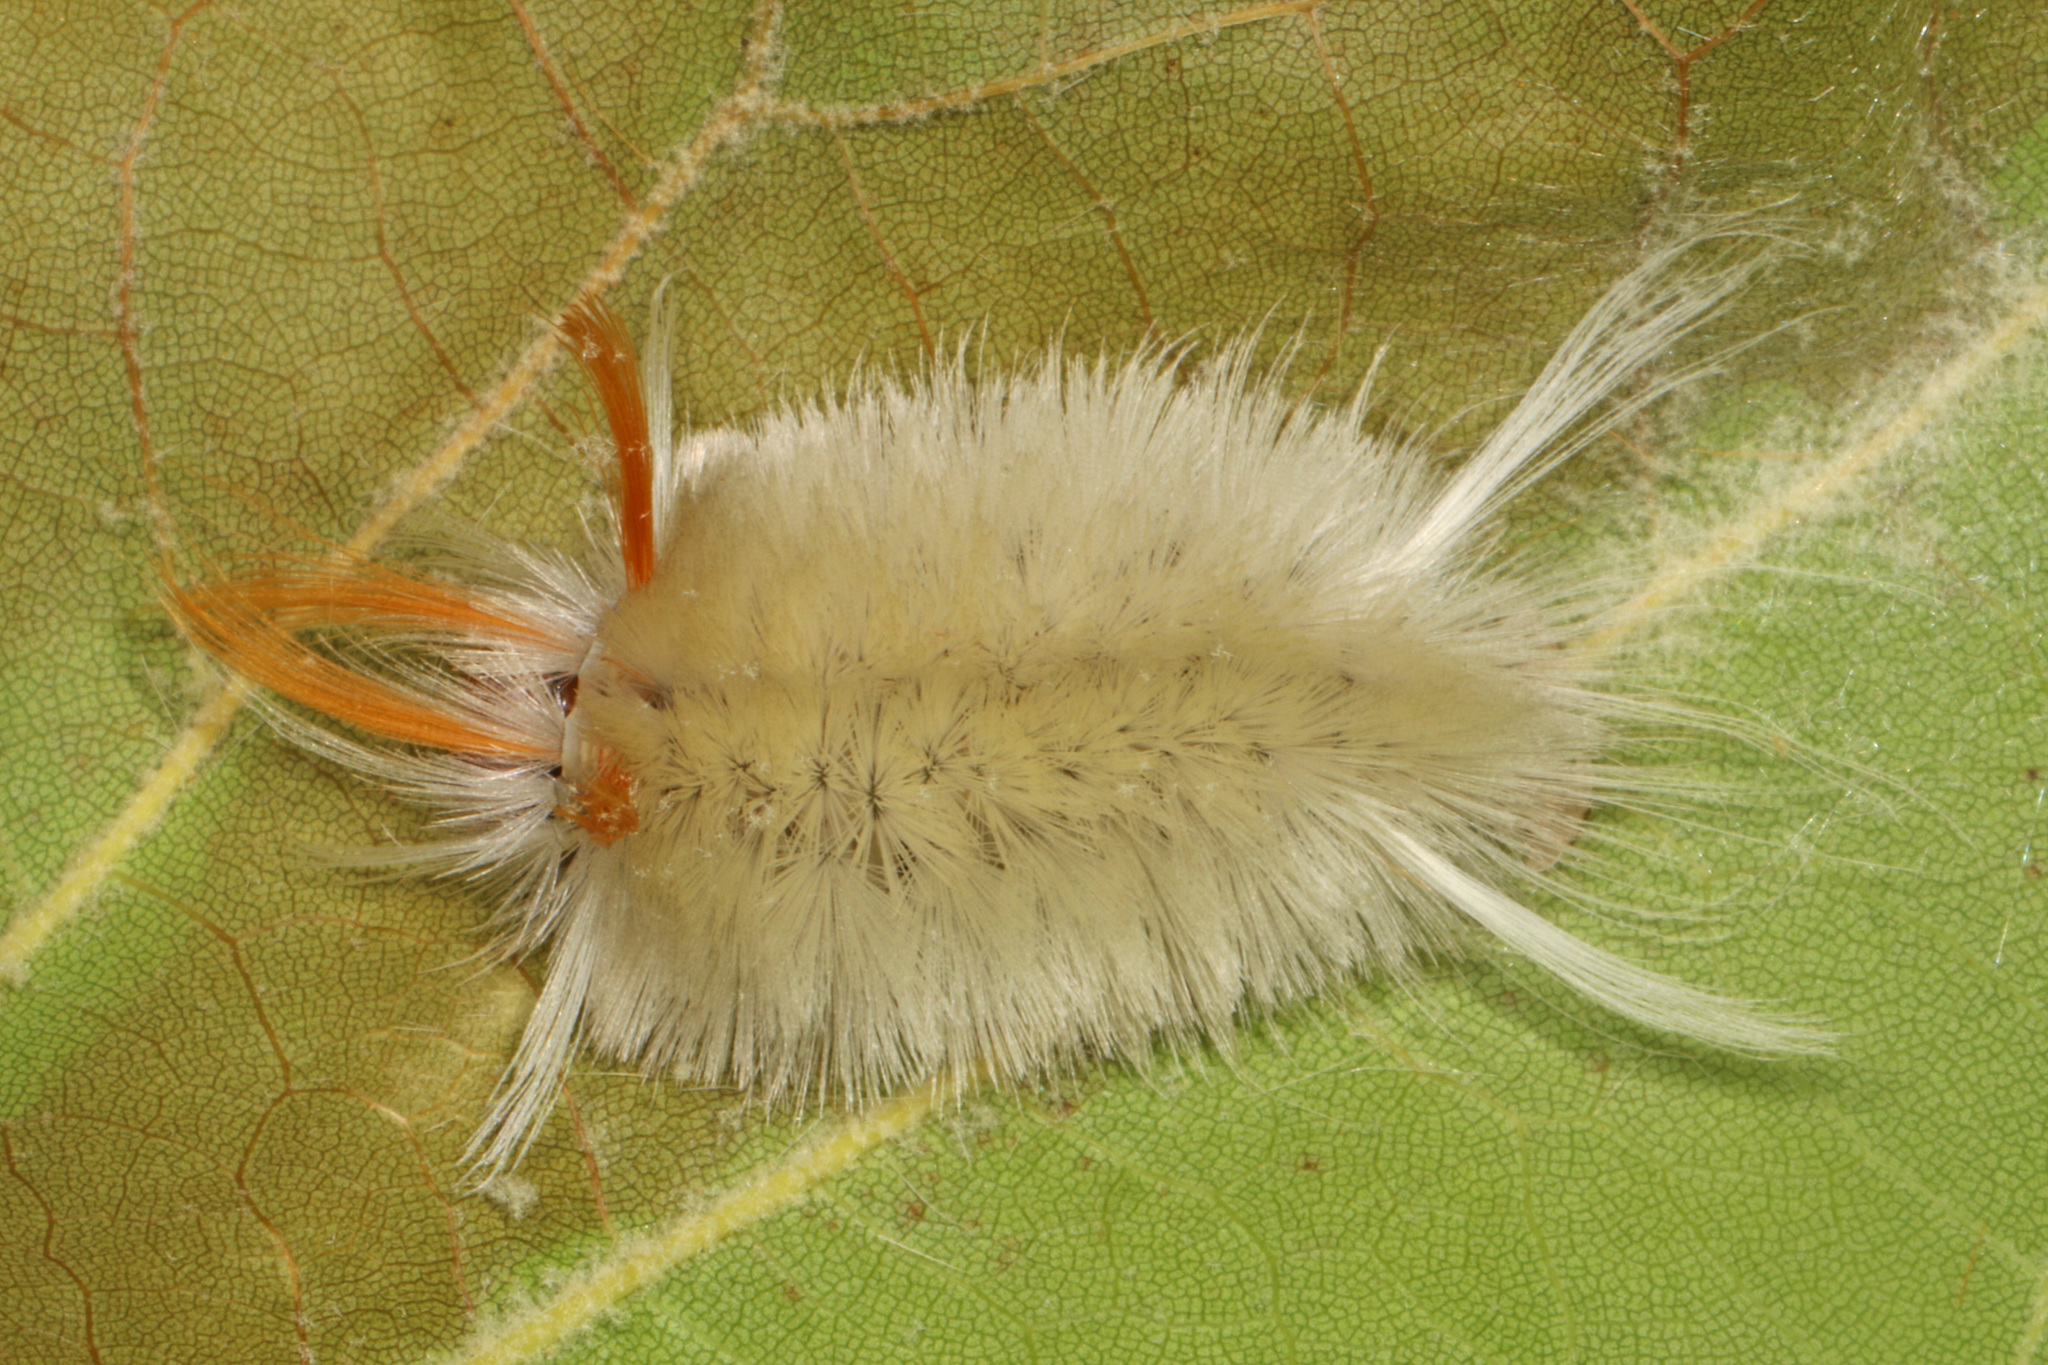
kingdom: Animalia
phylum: Arthropoda
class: Insecta
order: Lepidoptera
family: Erebidae
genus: Halysidota
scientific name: Halysidota harrisii
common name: Sycamore tussock moth
